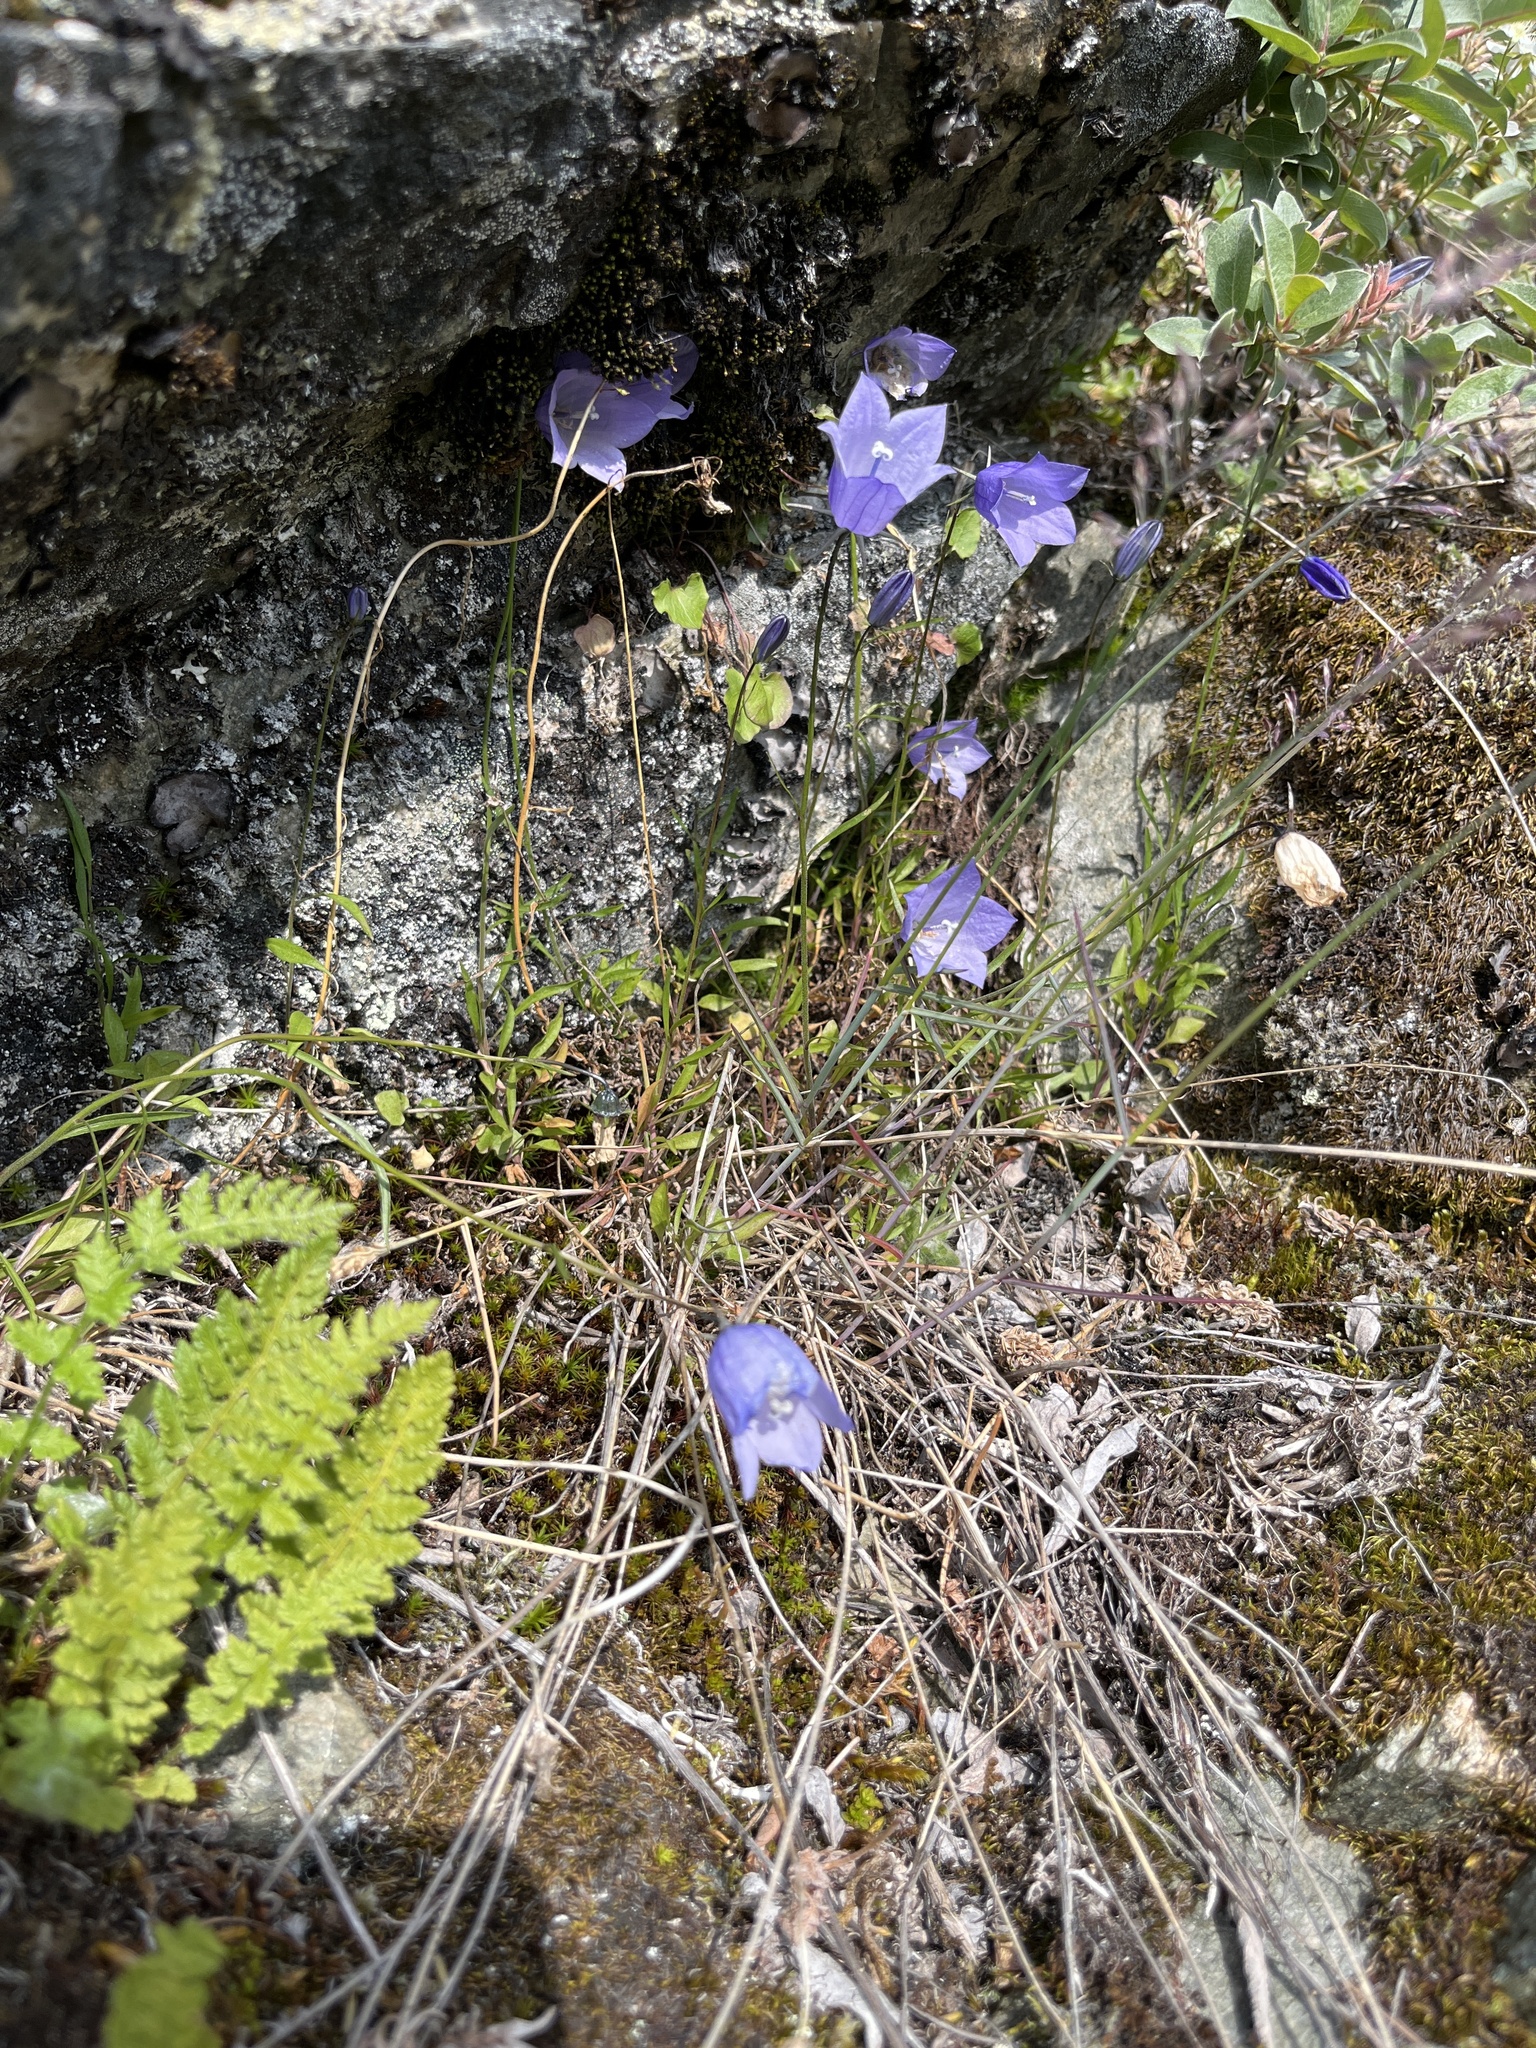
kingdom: Plantae
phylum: Tracheophyta
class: Magnoliopsida
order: Asterales
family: Campanulaceae
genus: Campanula
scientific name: Campanula giesekiana
